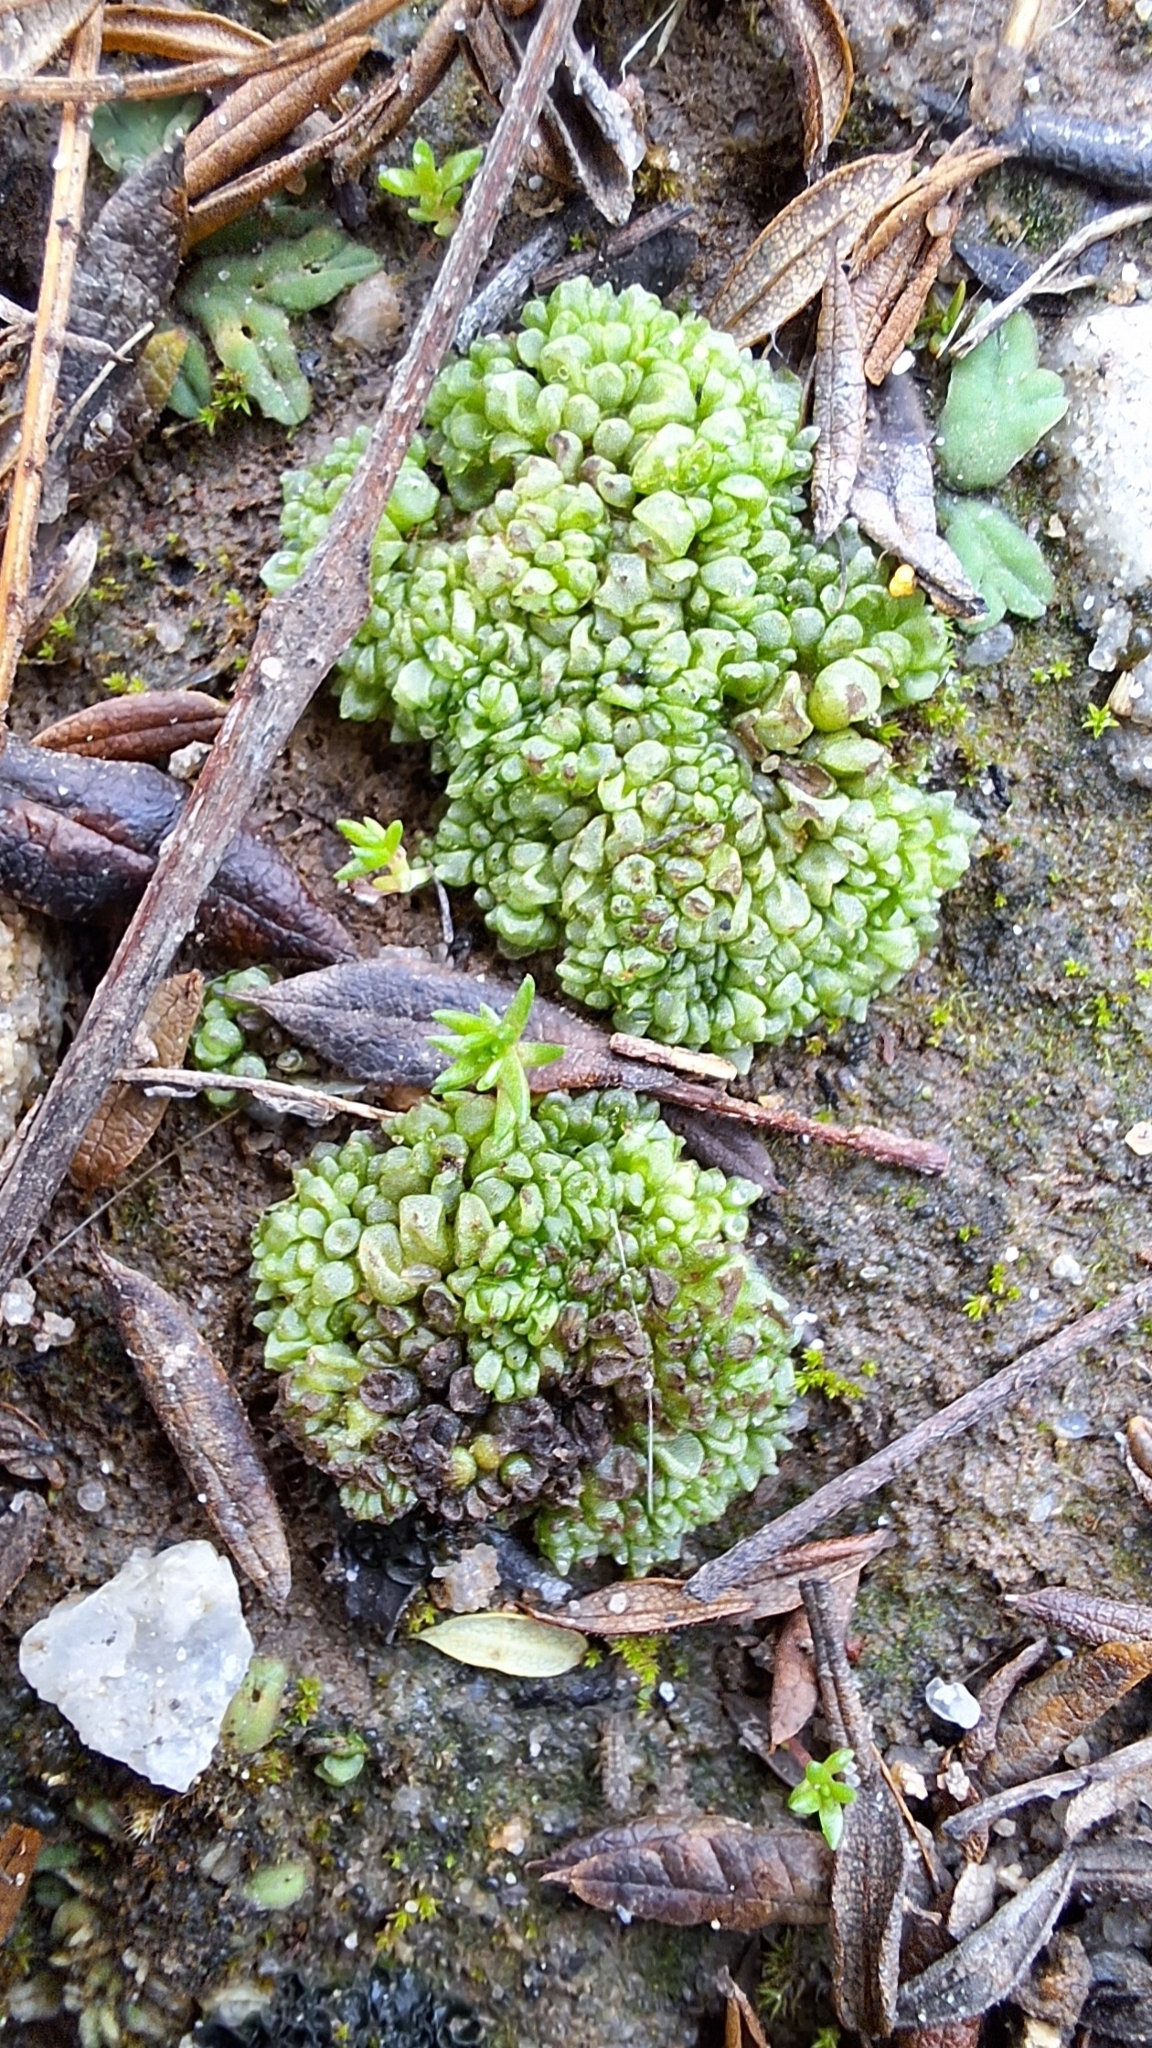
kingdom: Plantae
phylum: Marchantiophyta
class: Marchantiopsida
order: Sphaerocarpales
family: Sphaerocarpaceae
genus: Sphaerocarpos
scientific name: Sphaerocarpos texanus
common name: Texas balloonwort
